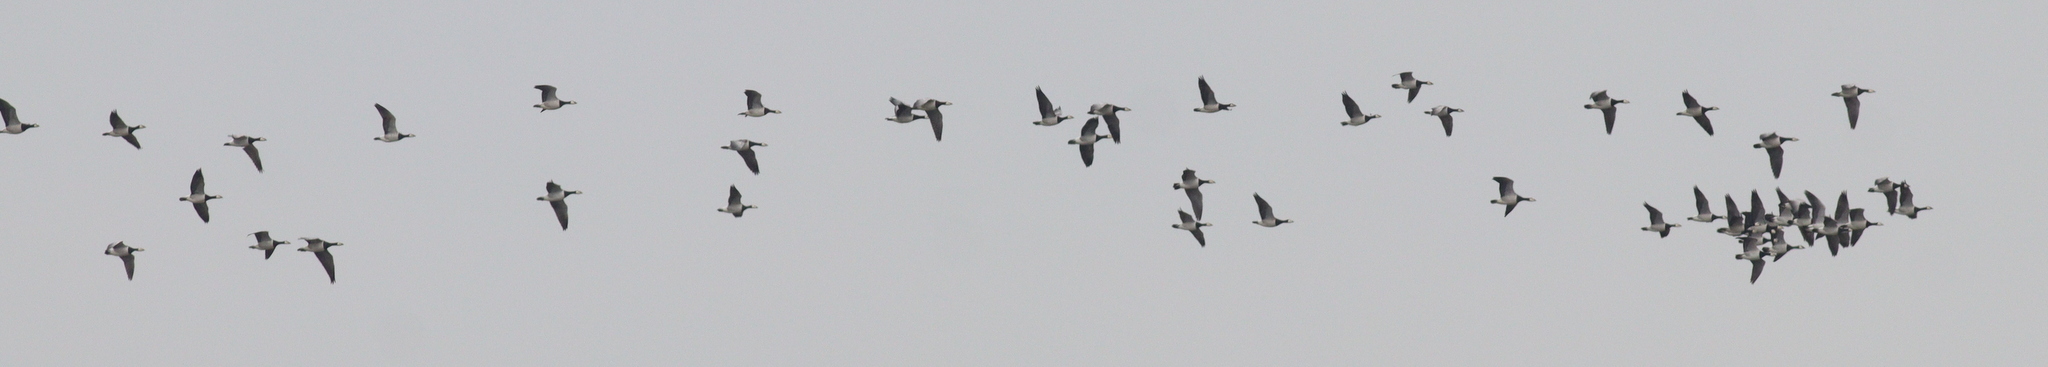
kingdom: Animalia
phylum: Chordata
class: Aves
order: Anseriformes
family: Anatidae
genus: Branta
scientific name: Branta leucopsis
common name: Barnacle goose
